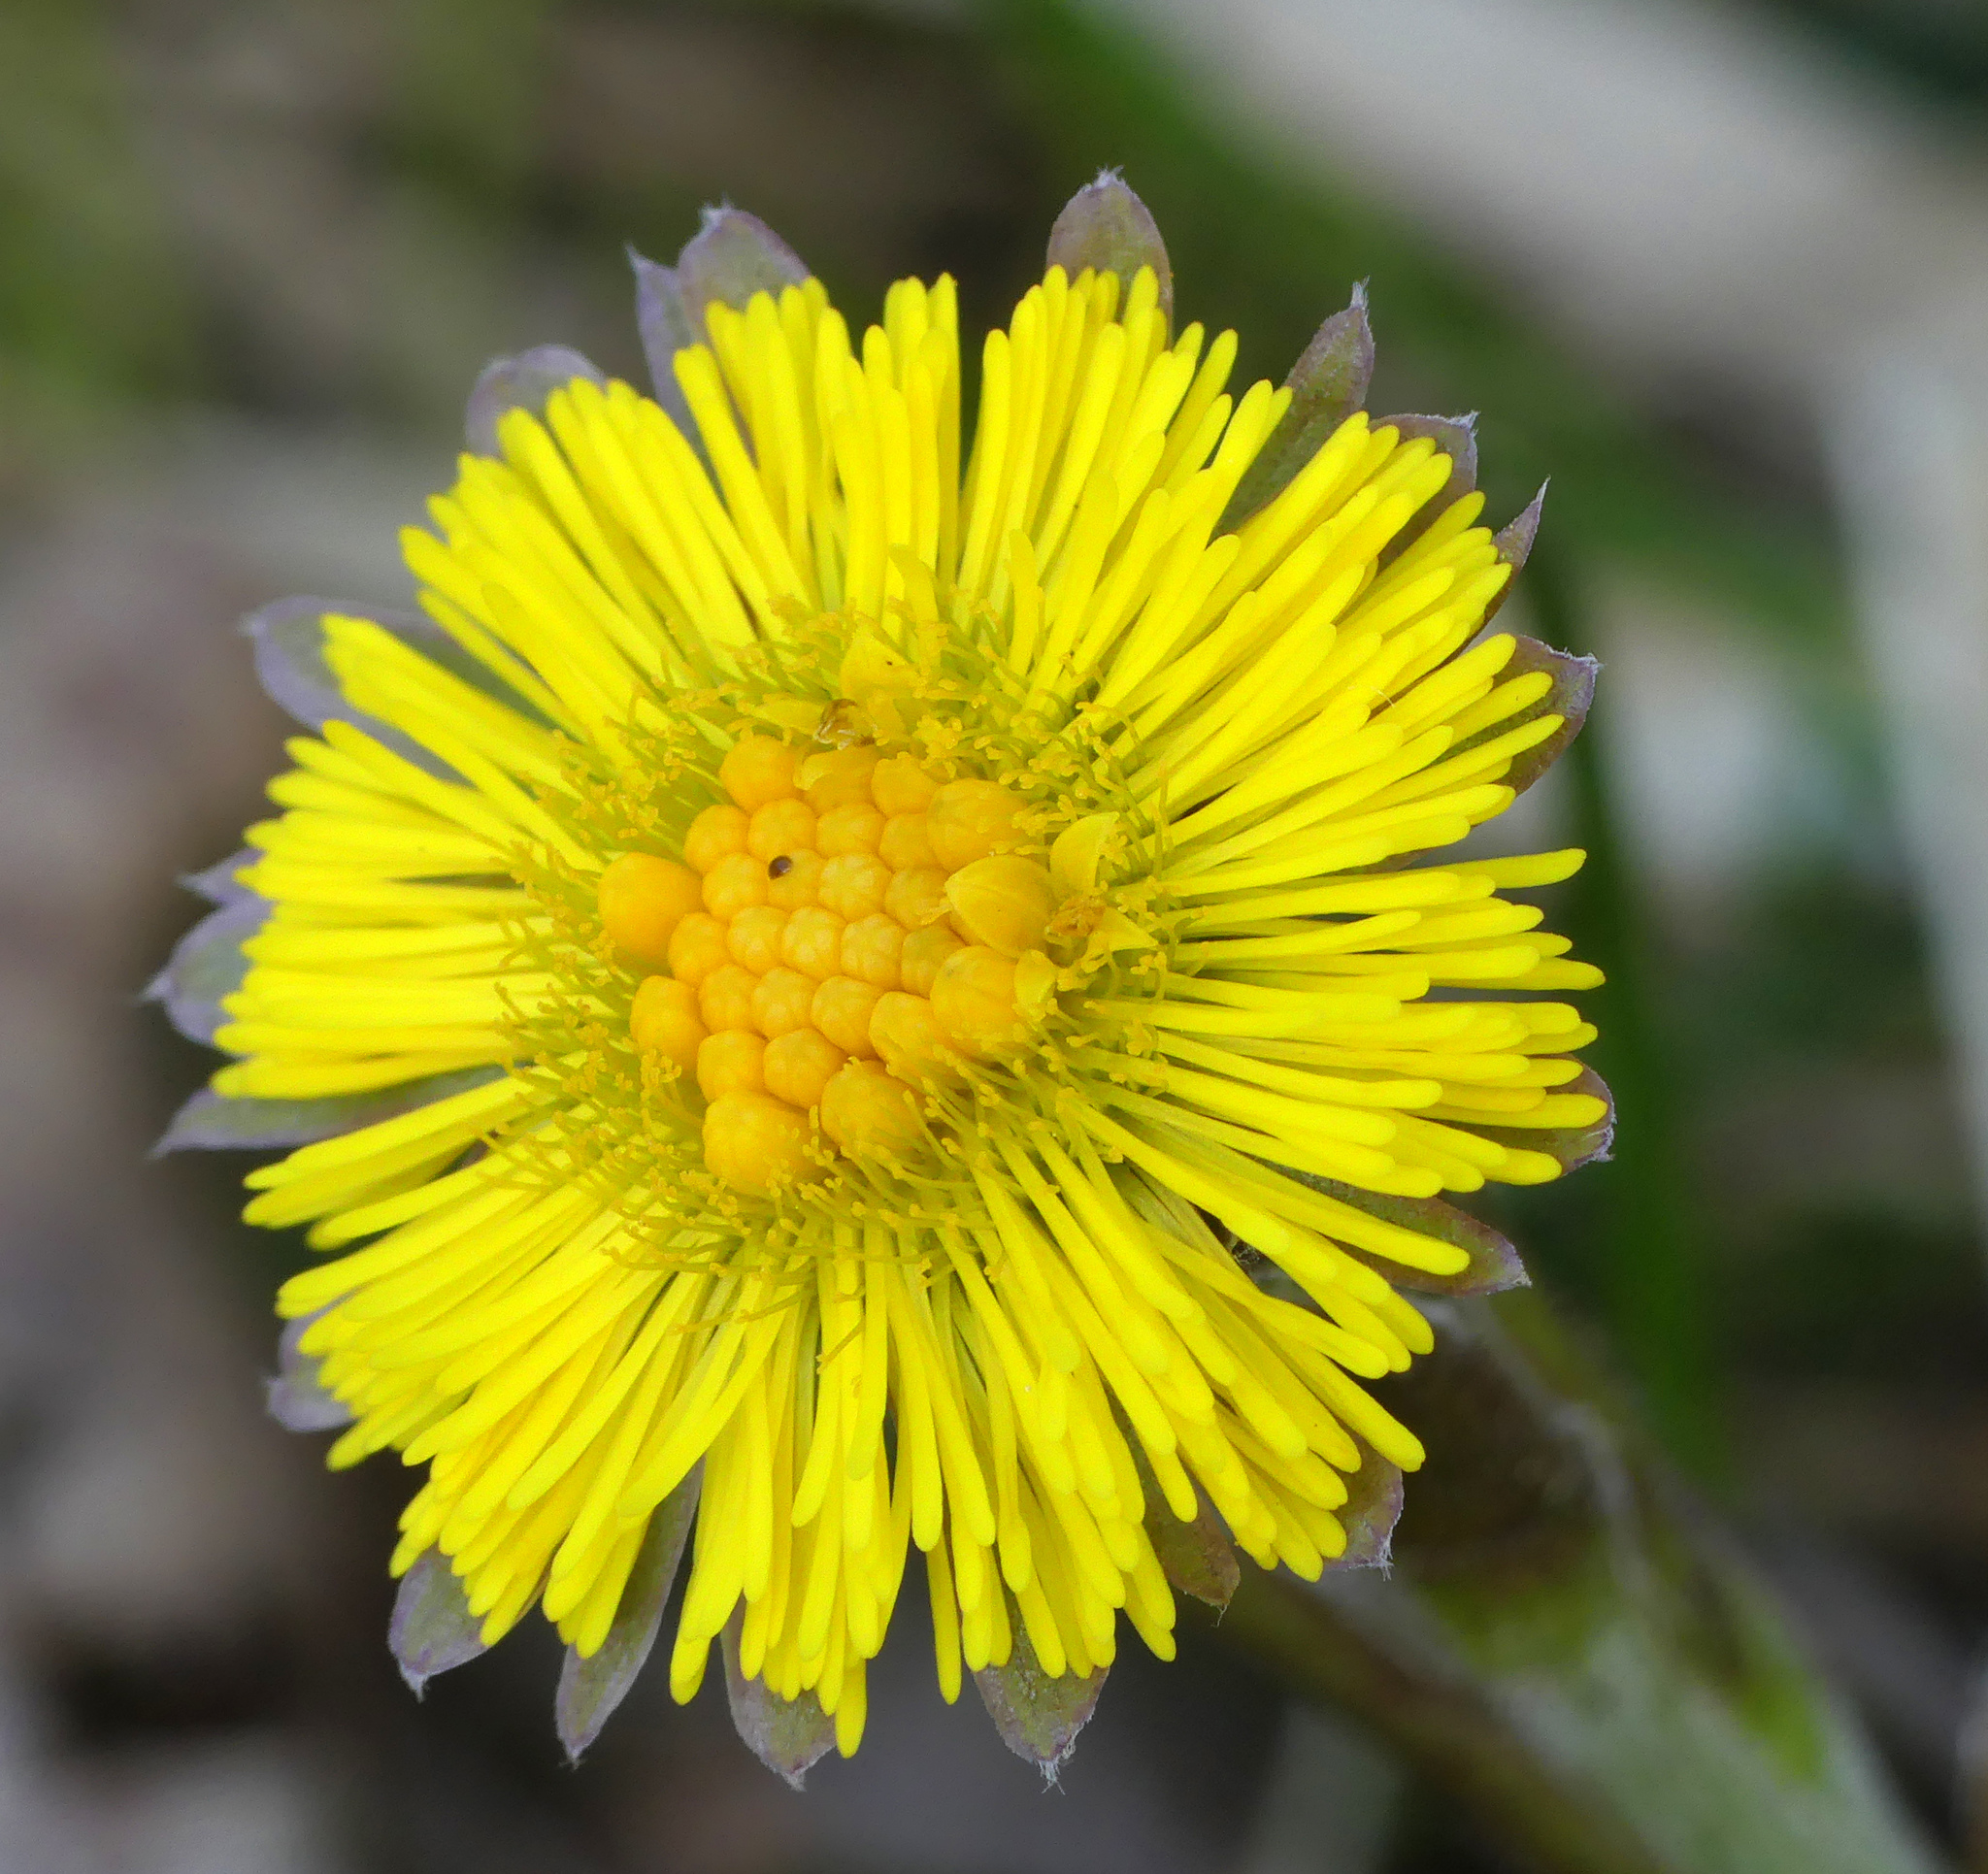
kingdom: Plantae
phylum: Tracheophyta
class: Magnoliopsida
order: Asterales
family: Asteraceae
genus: Tussilago
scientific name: Tussilago farfara
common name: Coltsfoot
